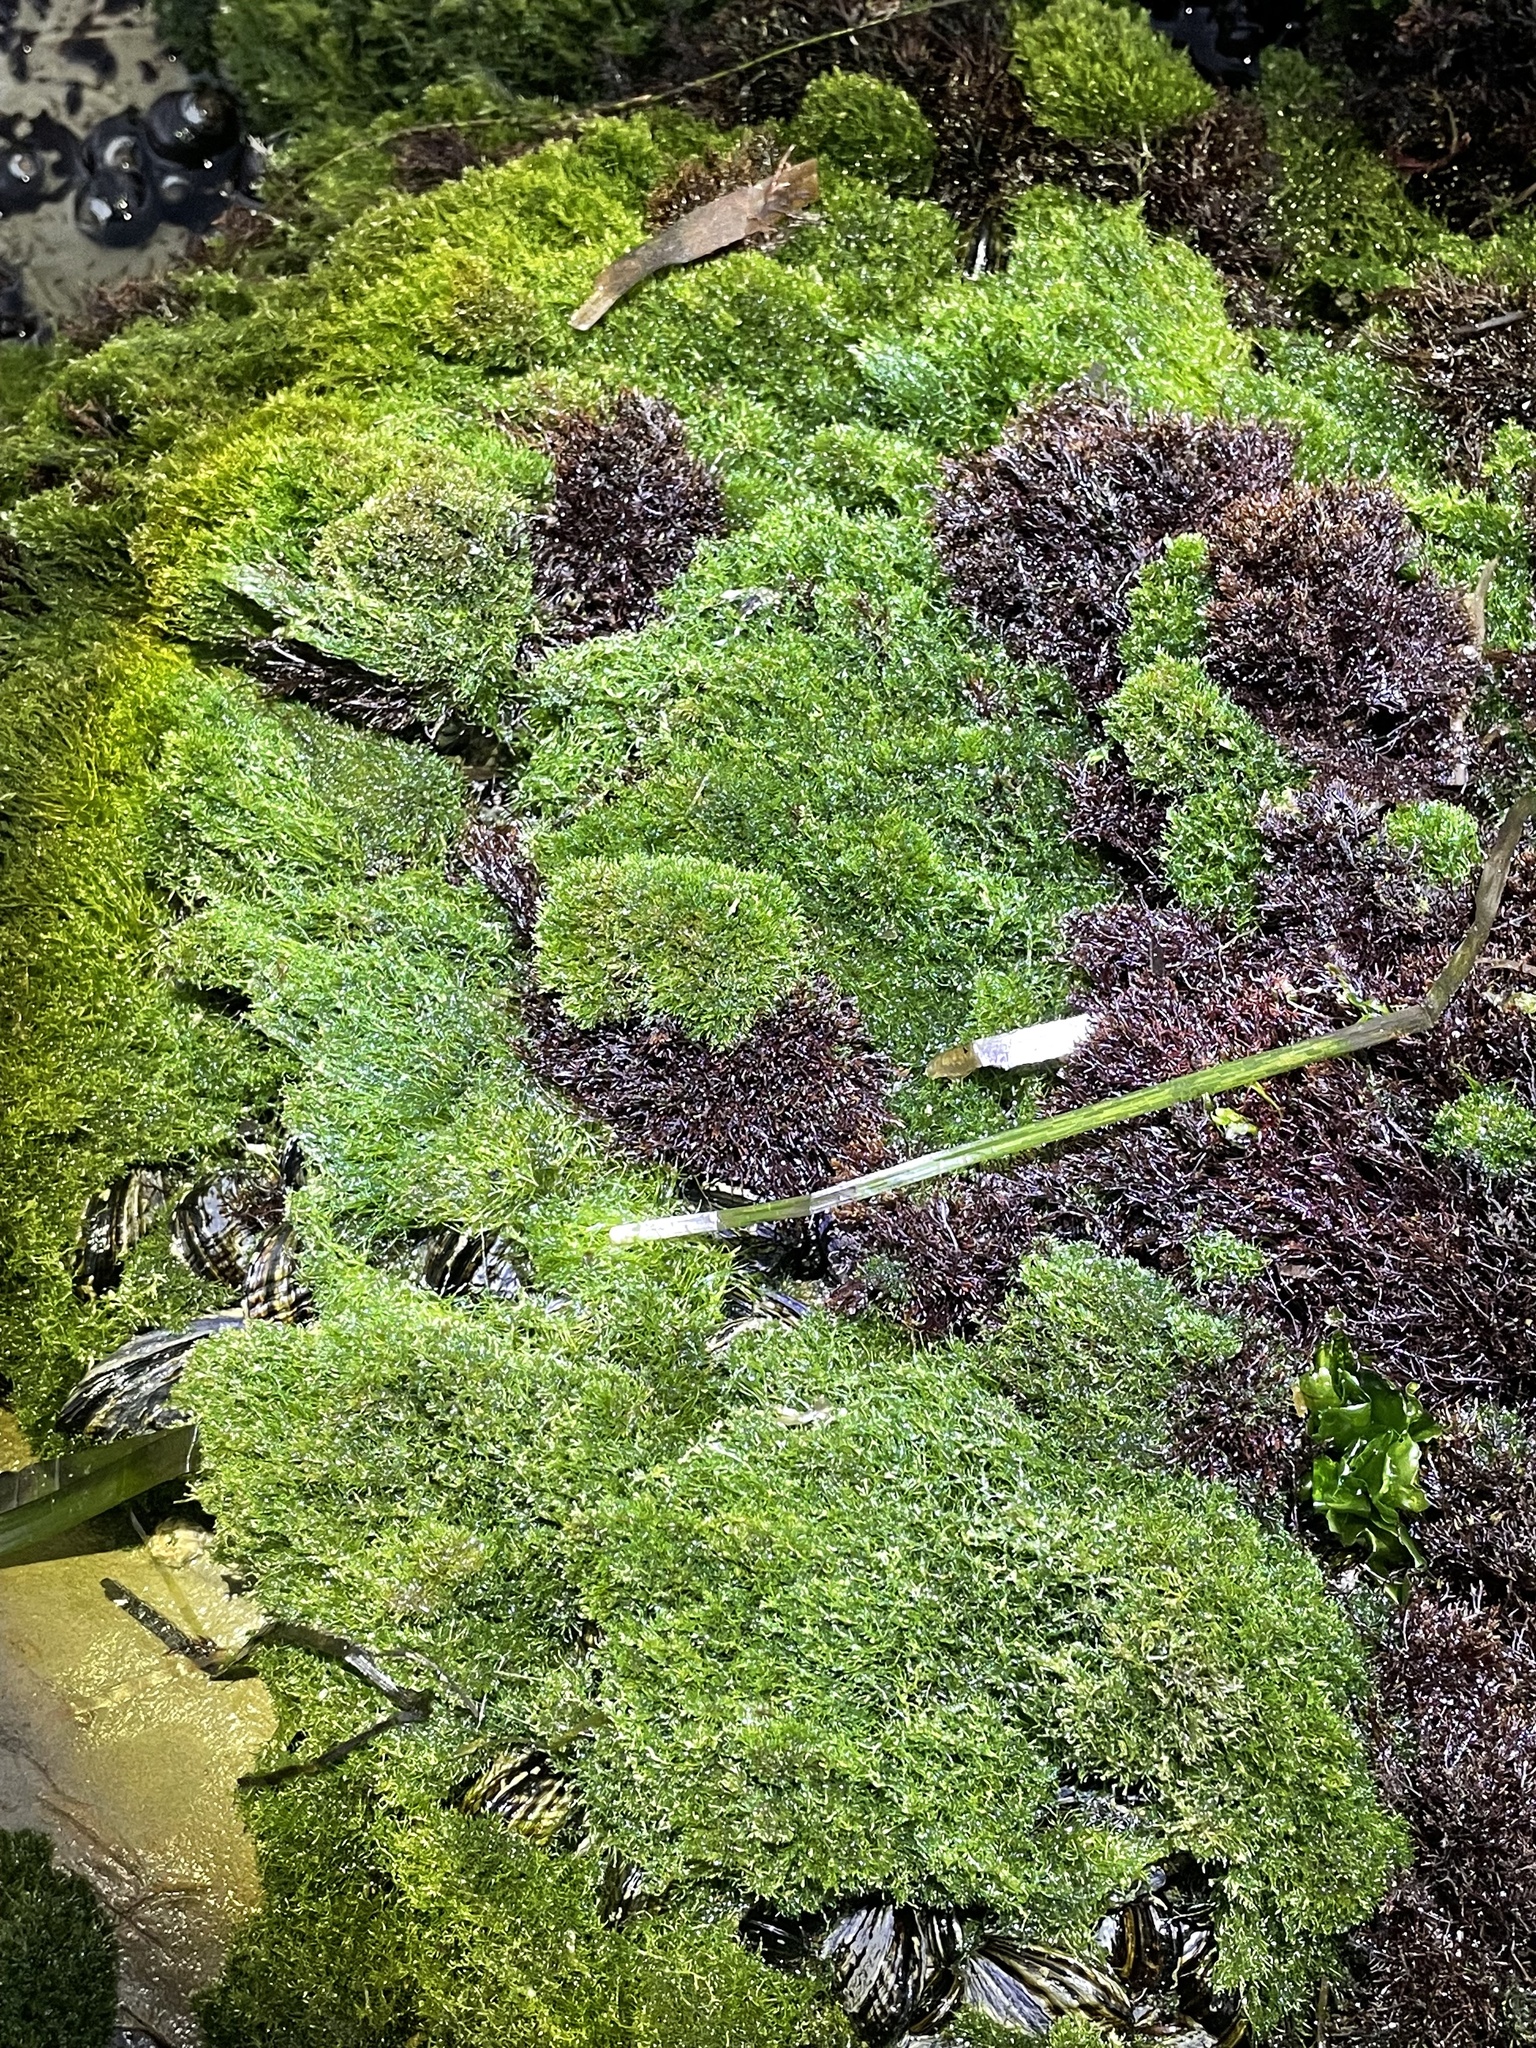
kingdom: Plantae
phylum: Chlorophyta
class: Ulvophyceae
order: Cladophorales
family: Cladophoraceae
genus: Cladophora
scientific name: Cladophora columbiana
